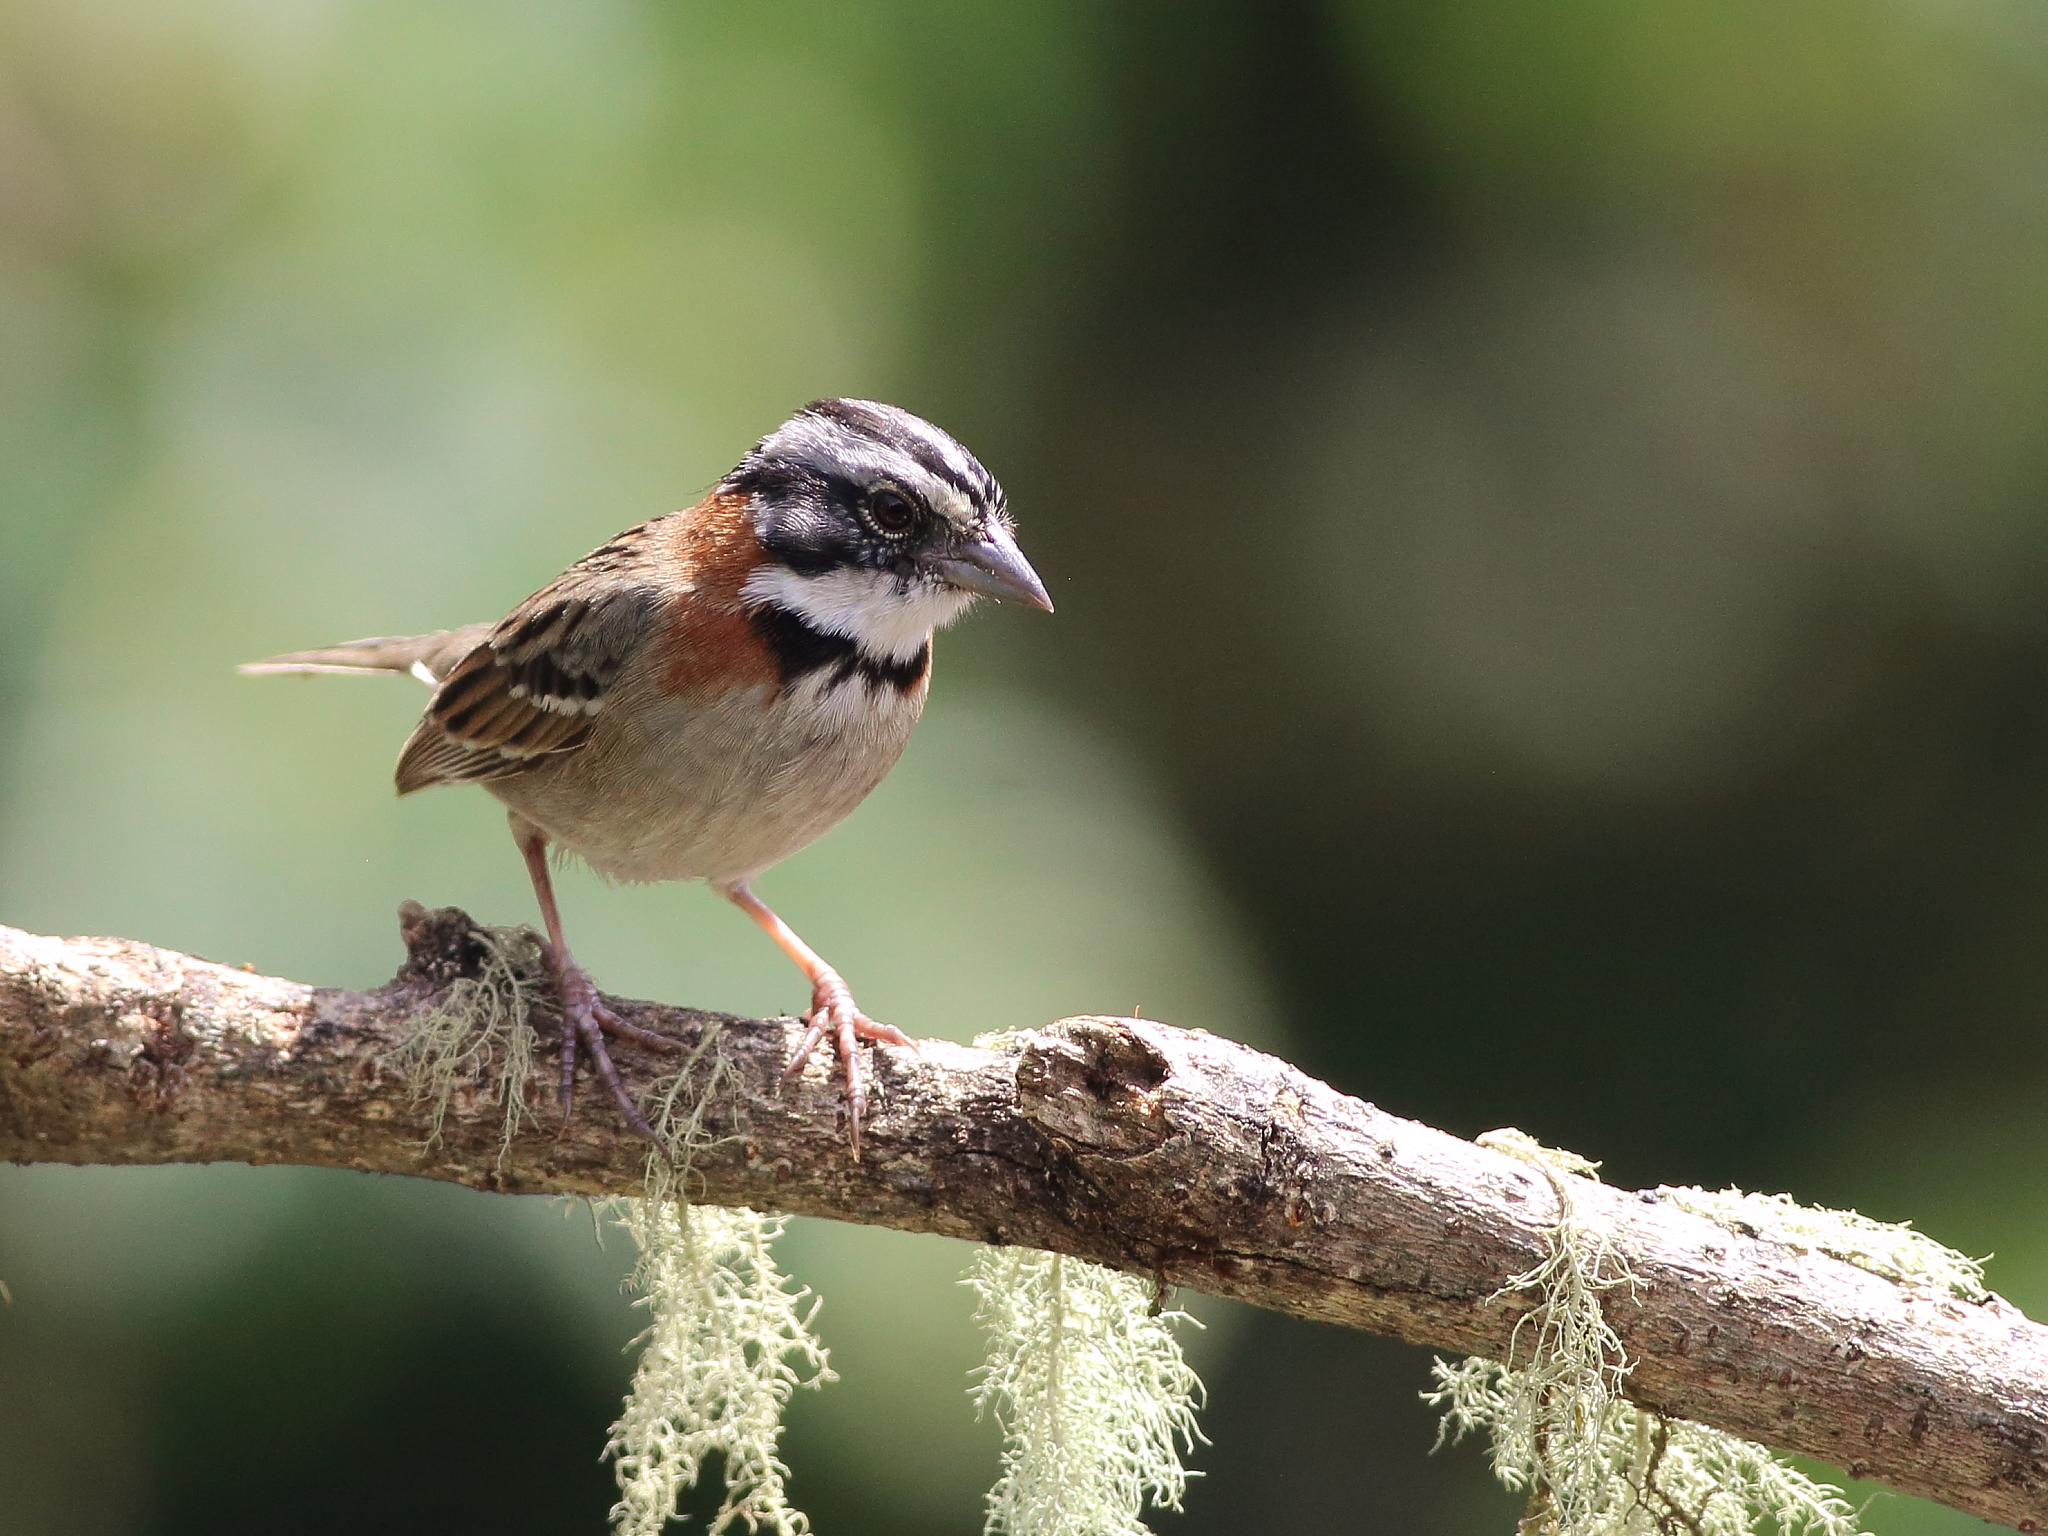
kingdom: Animalia
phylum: Chordata
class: Aves
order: Passeriformes
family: Passerellidae
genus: Zonotrichia
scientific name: Zonotrichia capensis
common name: Rufous-collared sparrow
